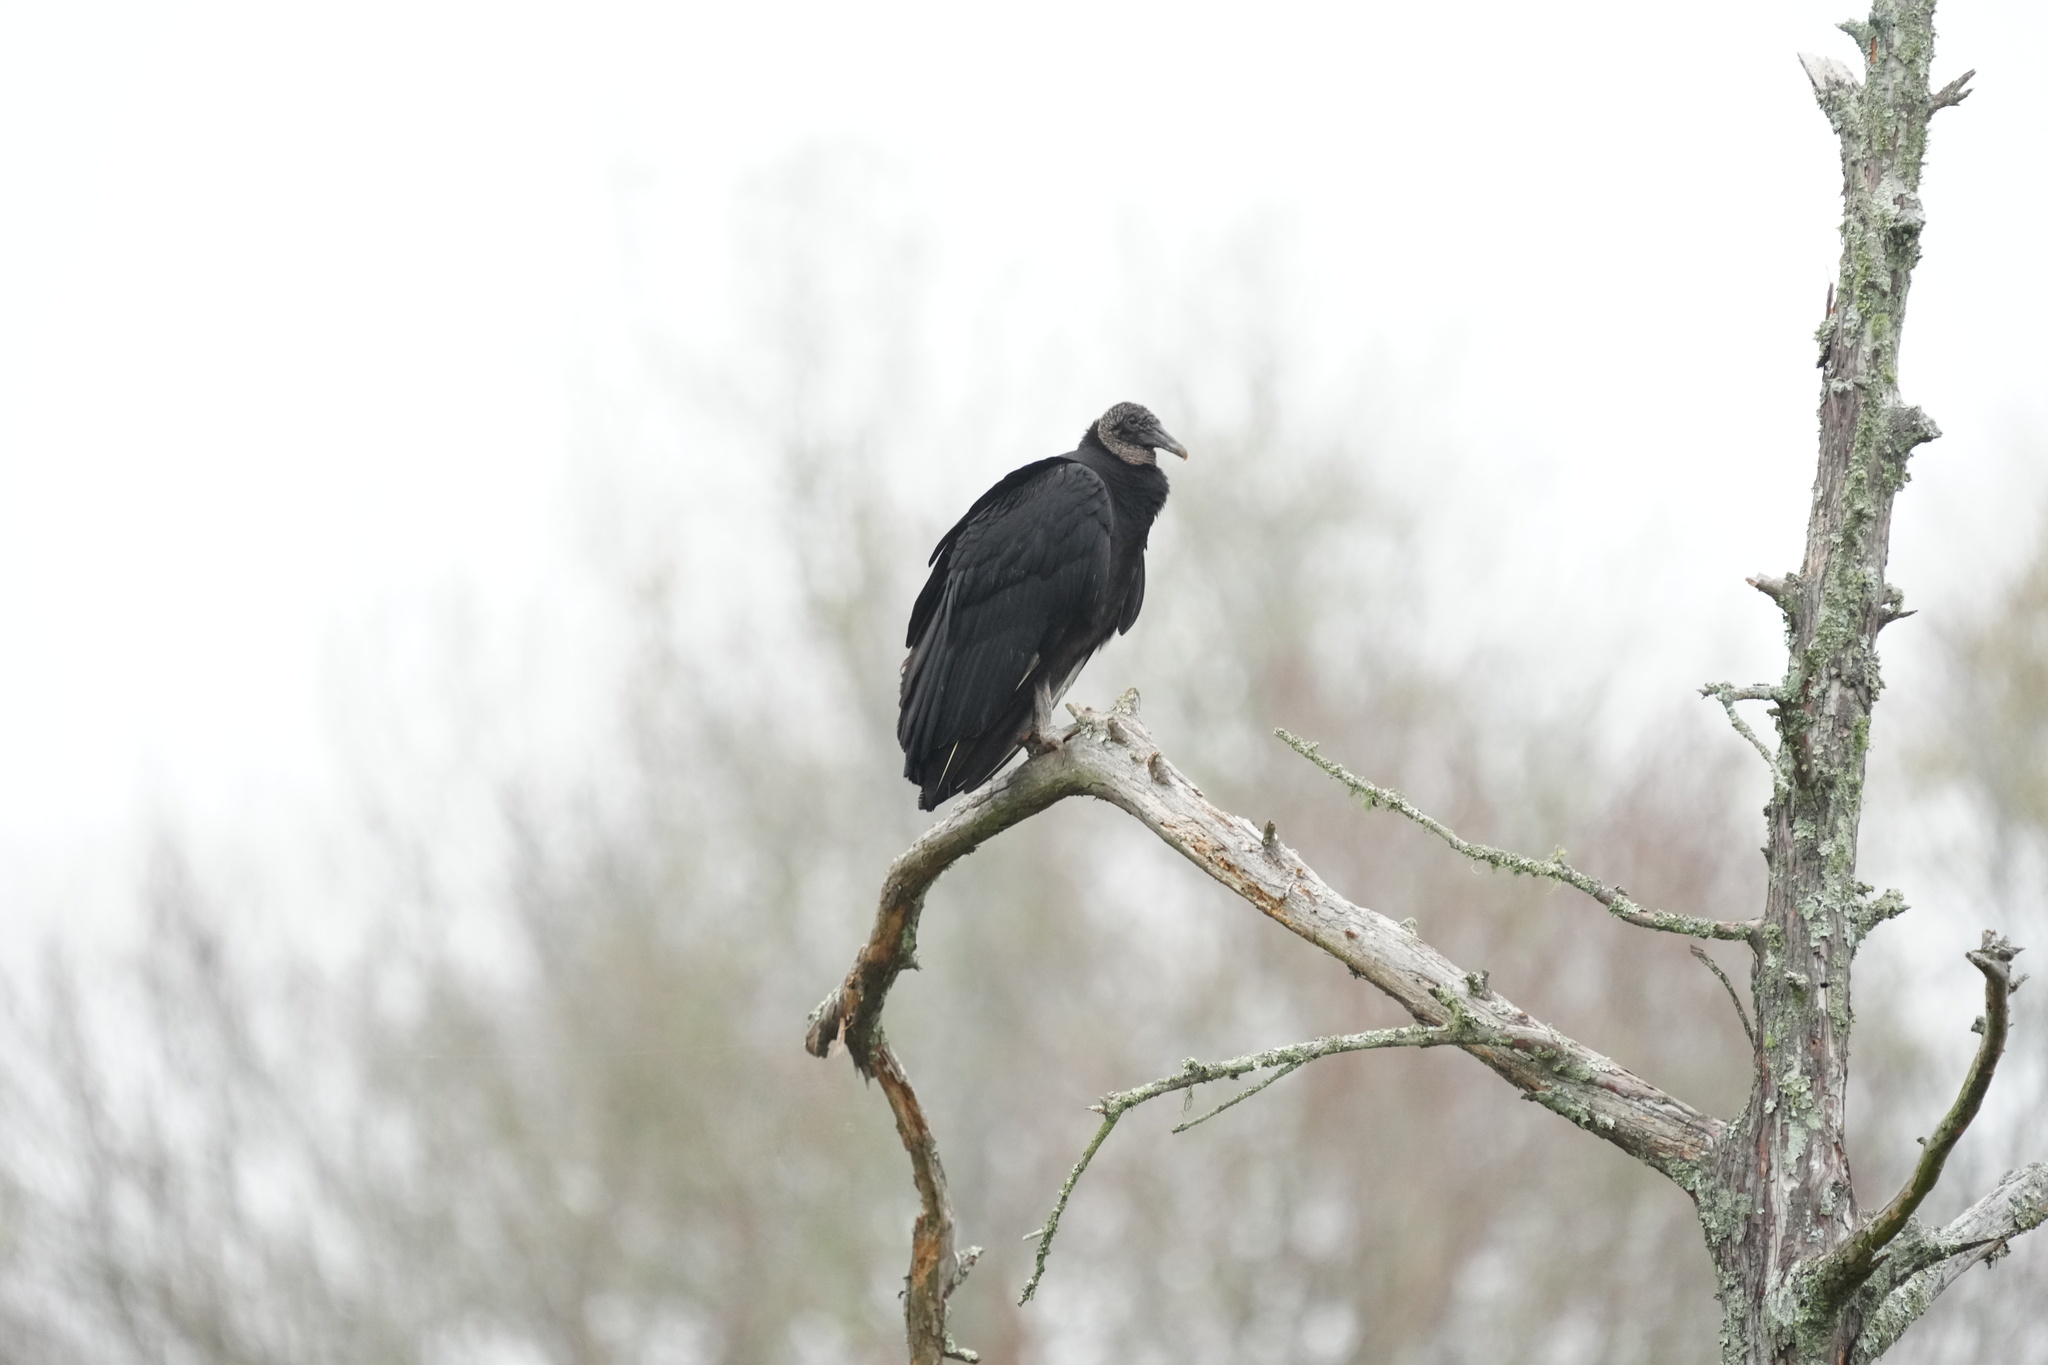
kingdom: Animalia
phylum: Chordata
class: Aves
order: Accipitriformes
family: Cathartidae
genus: Coragyps
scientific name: Coragyps atratus
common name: Black vulture
